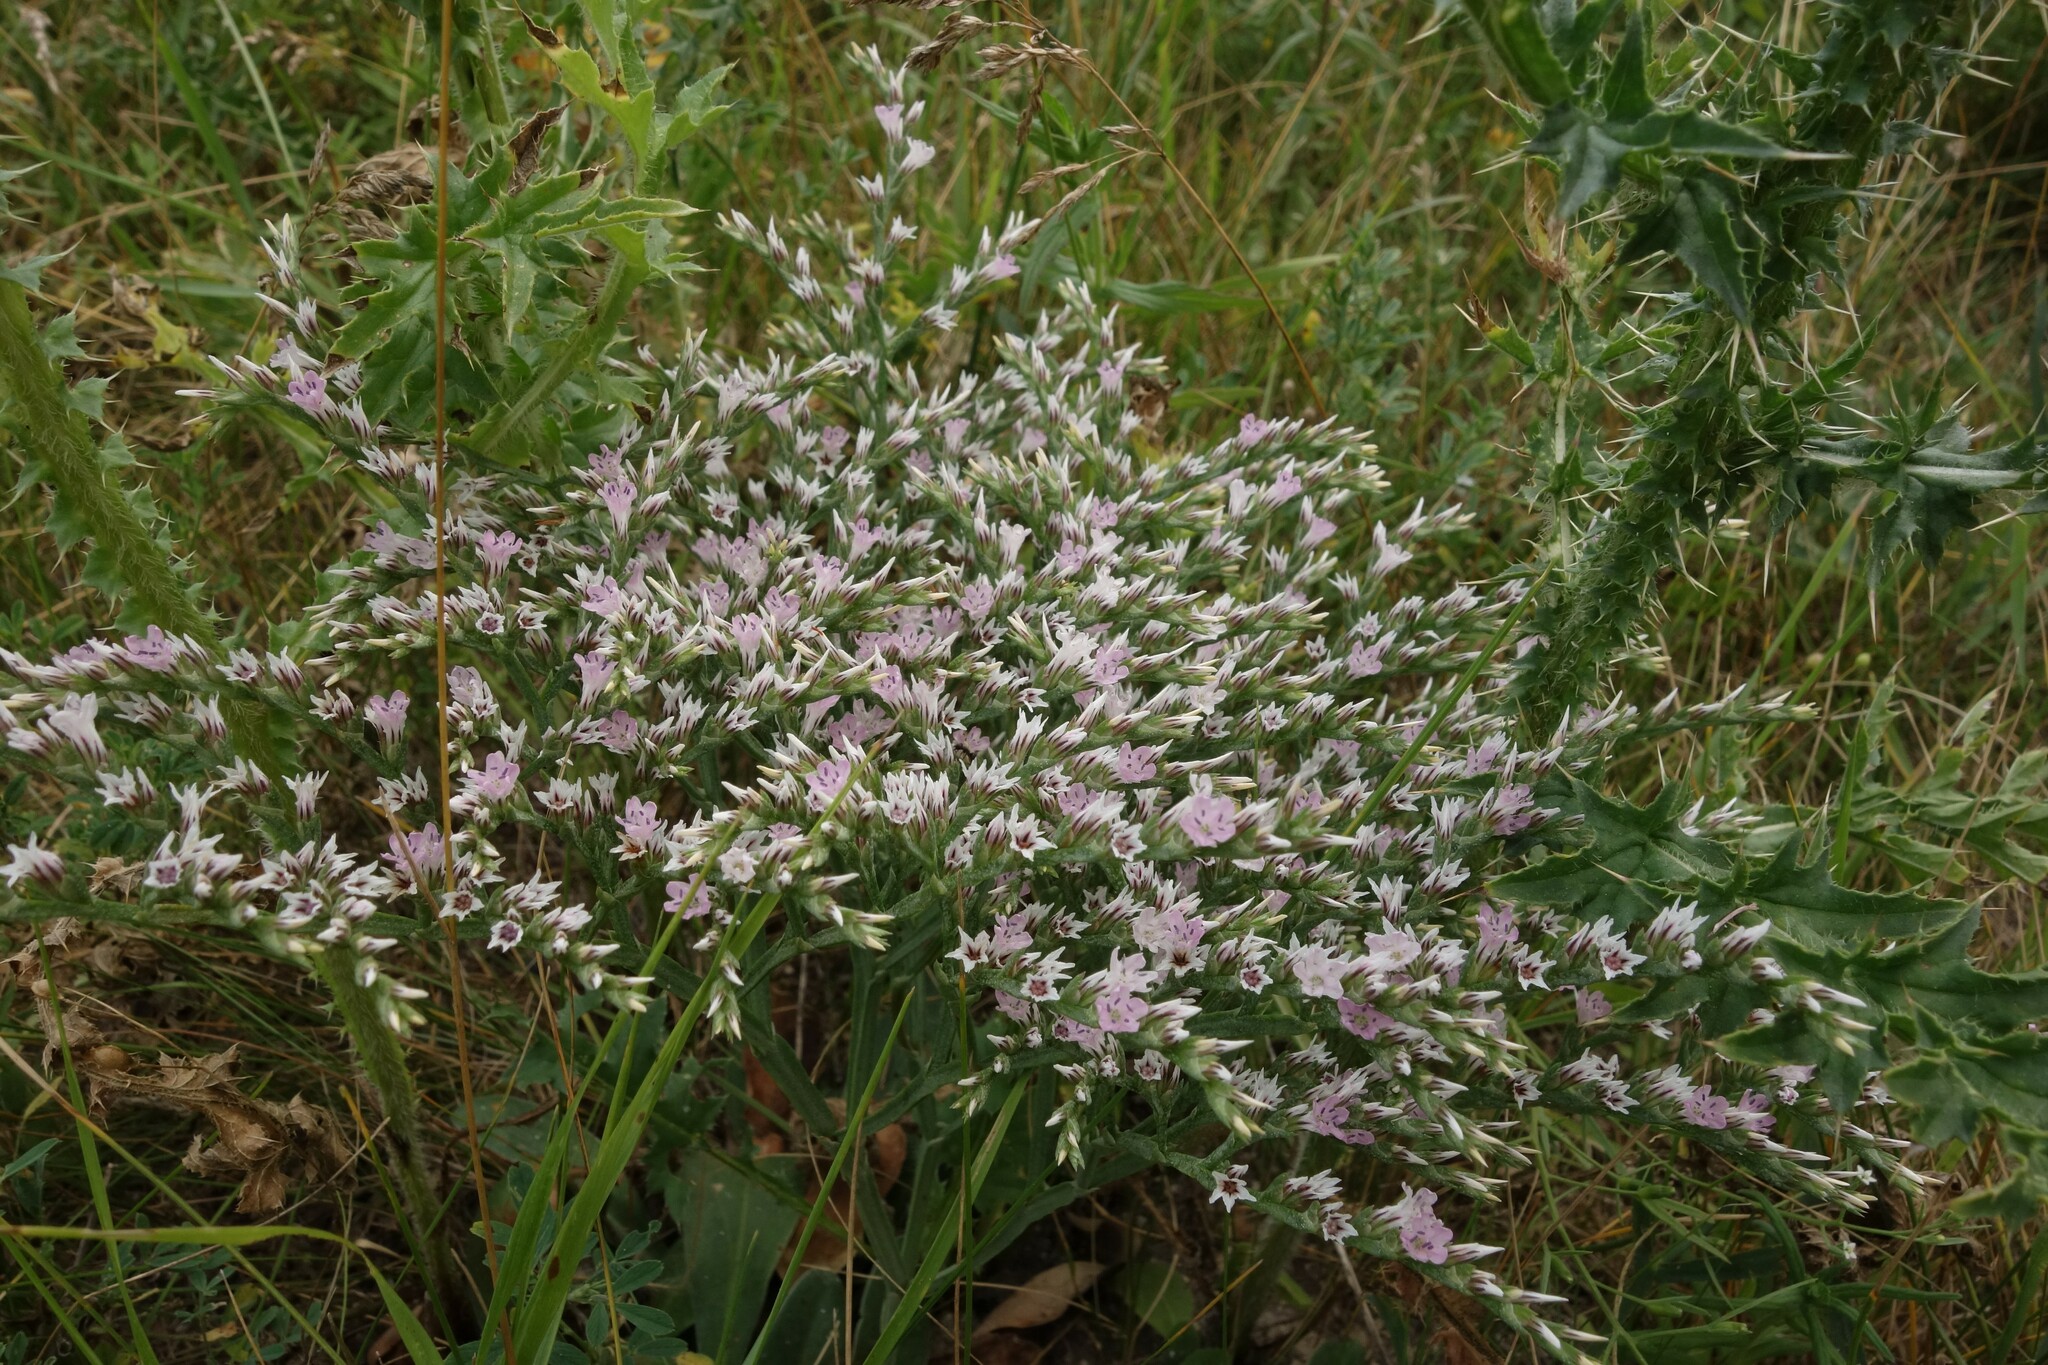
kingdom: Plantae
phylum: Tracheophyta
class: Magnoliopsida
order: Caryophyllales
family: Plumbaginaceae
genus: Goniolimon
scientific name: Goniolimon tataricum
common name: Statice
